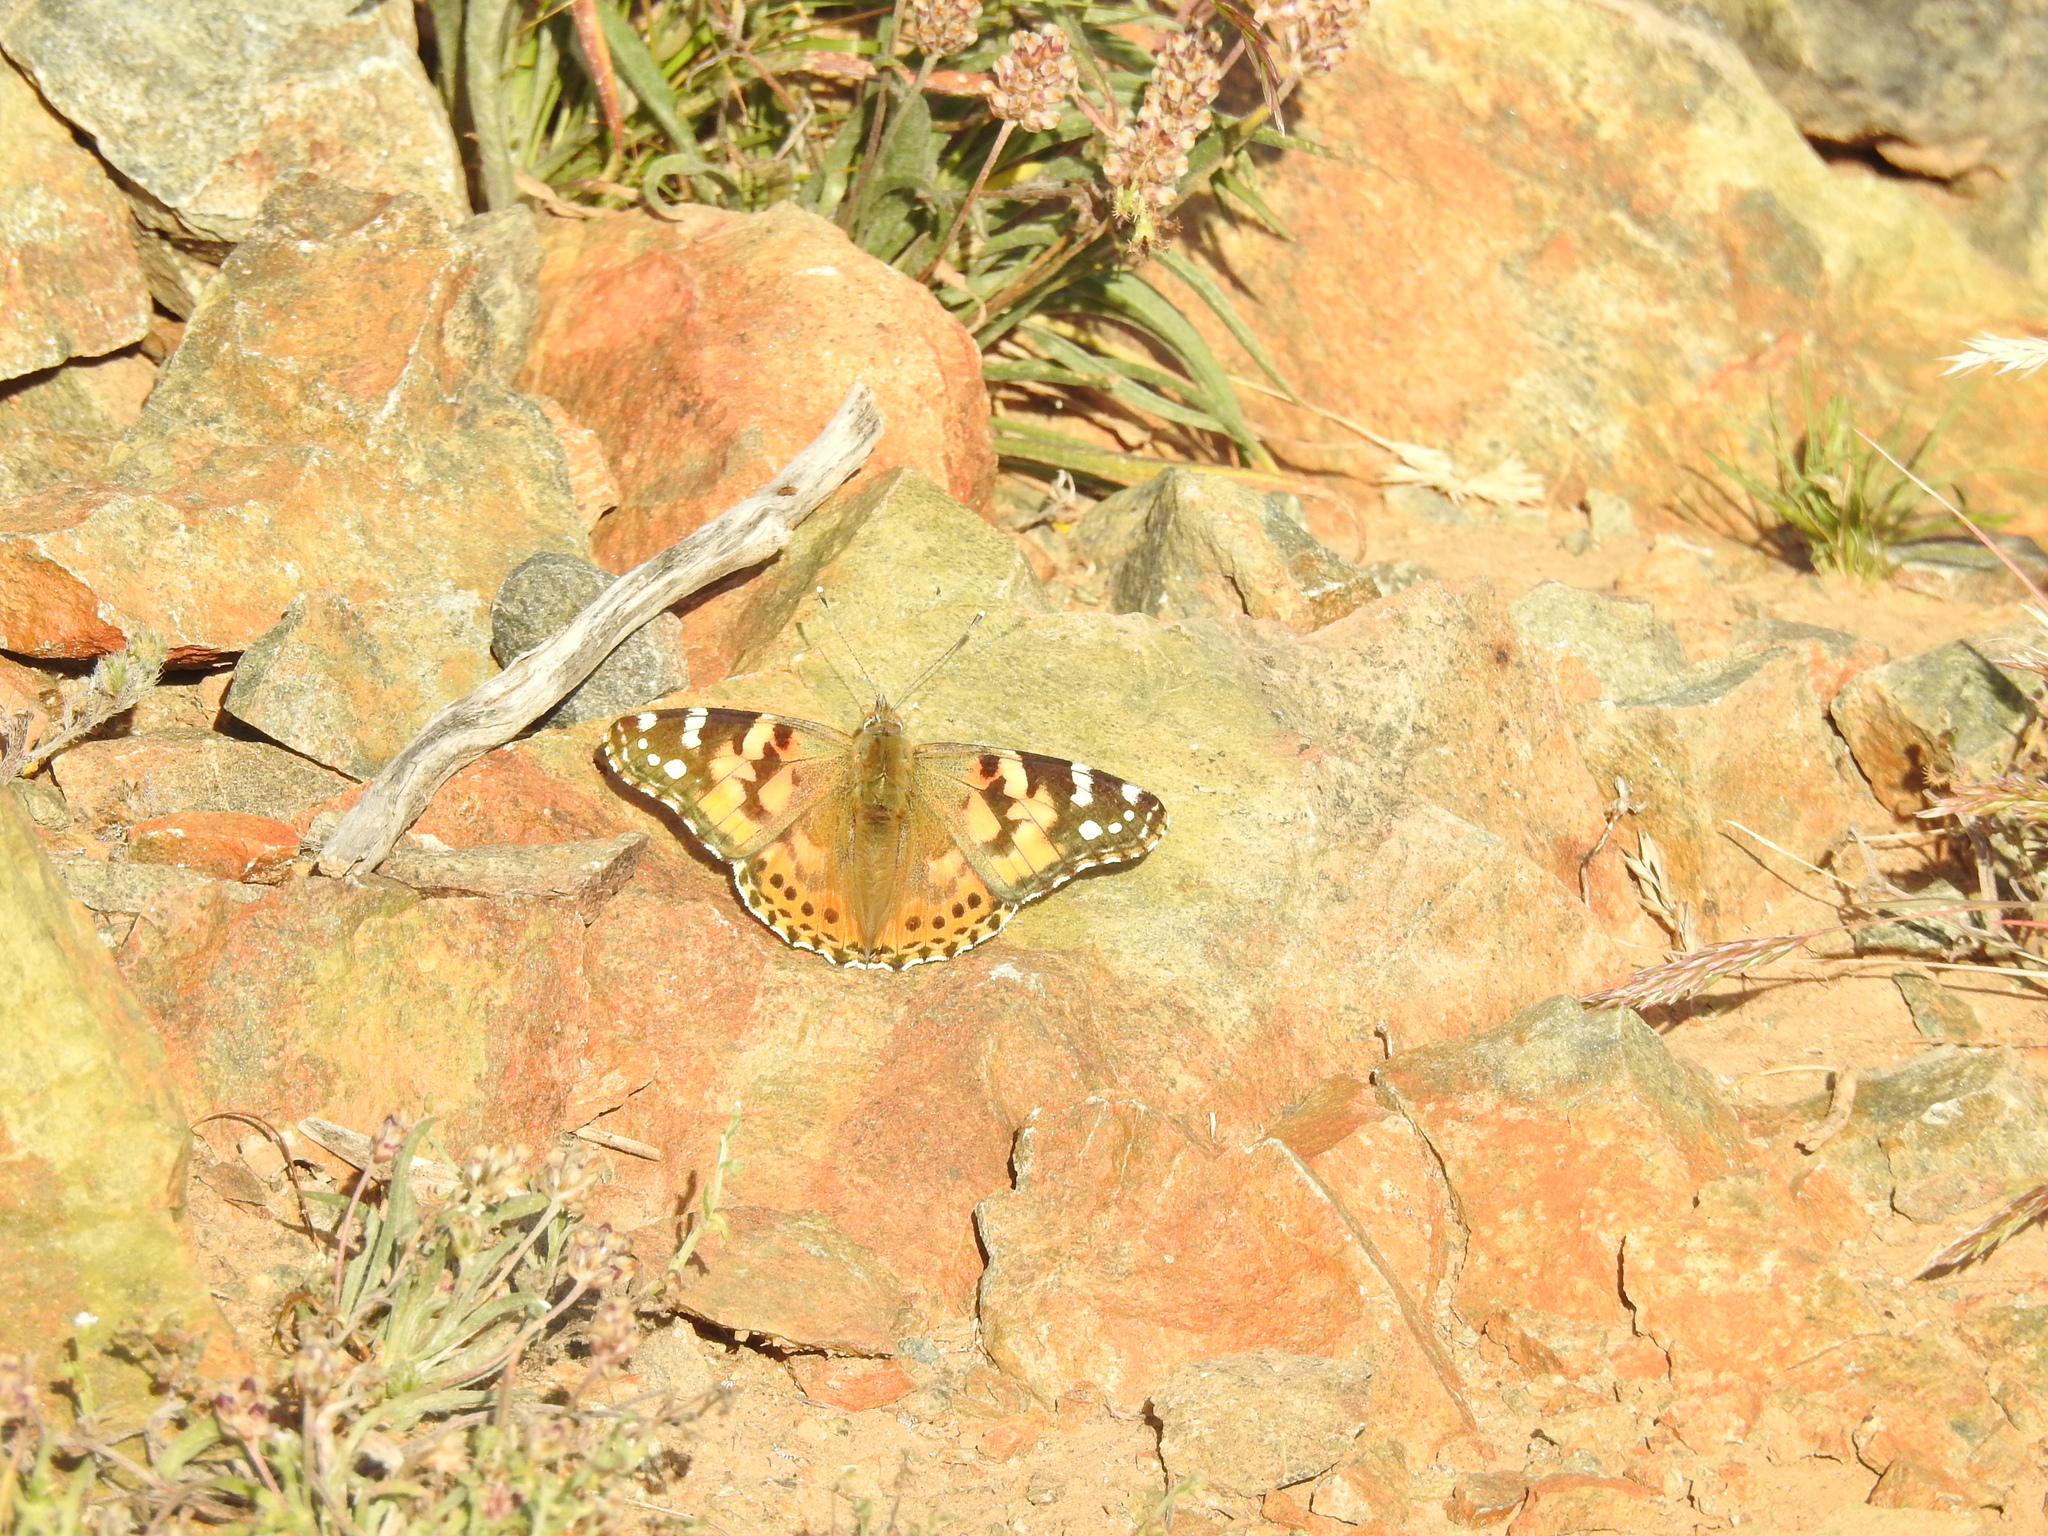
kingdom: Animalia
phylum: Arthropoda
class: Insecta
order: Lepidoptera
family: Nymphalidae
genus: Vanessa
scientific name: Vanessa cardui
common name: Painted lady
